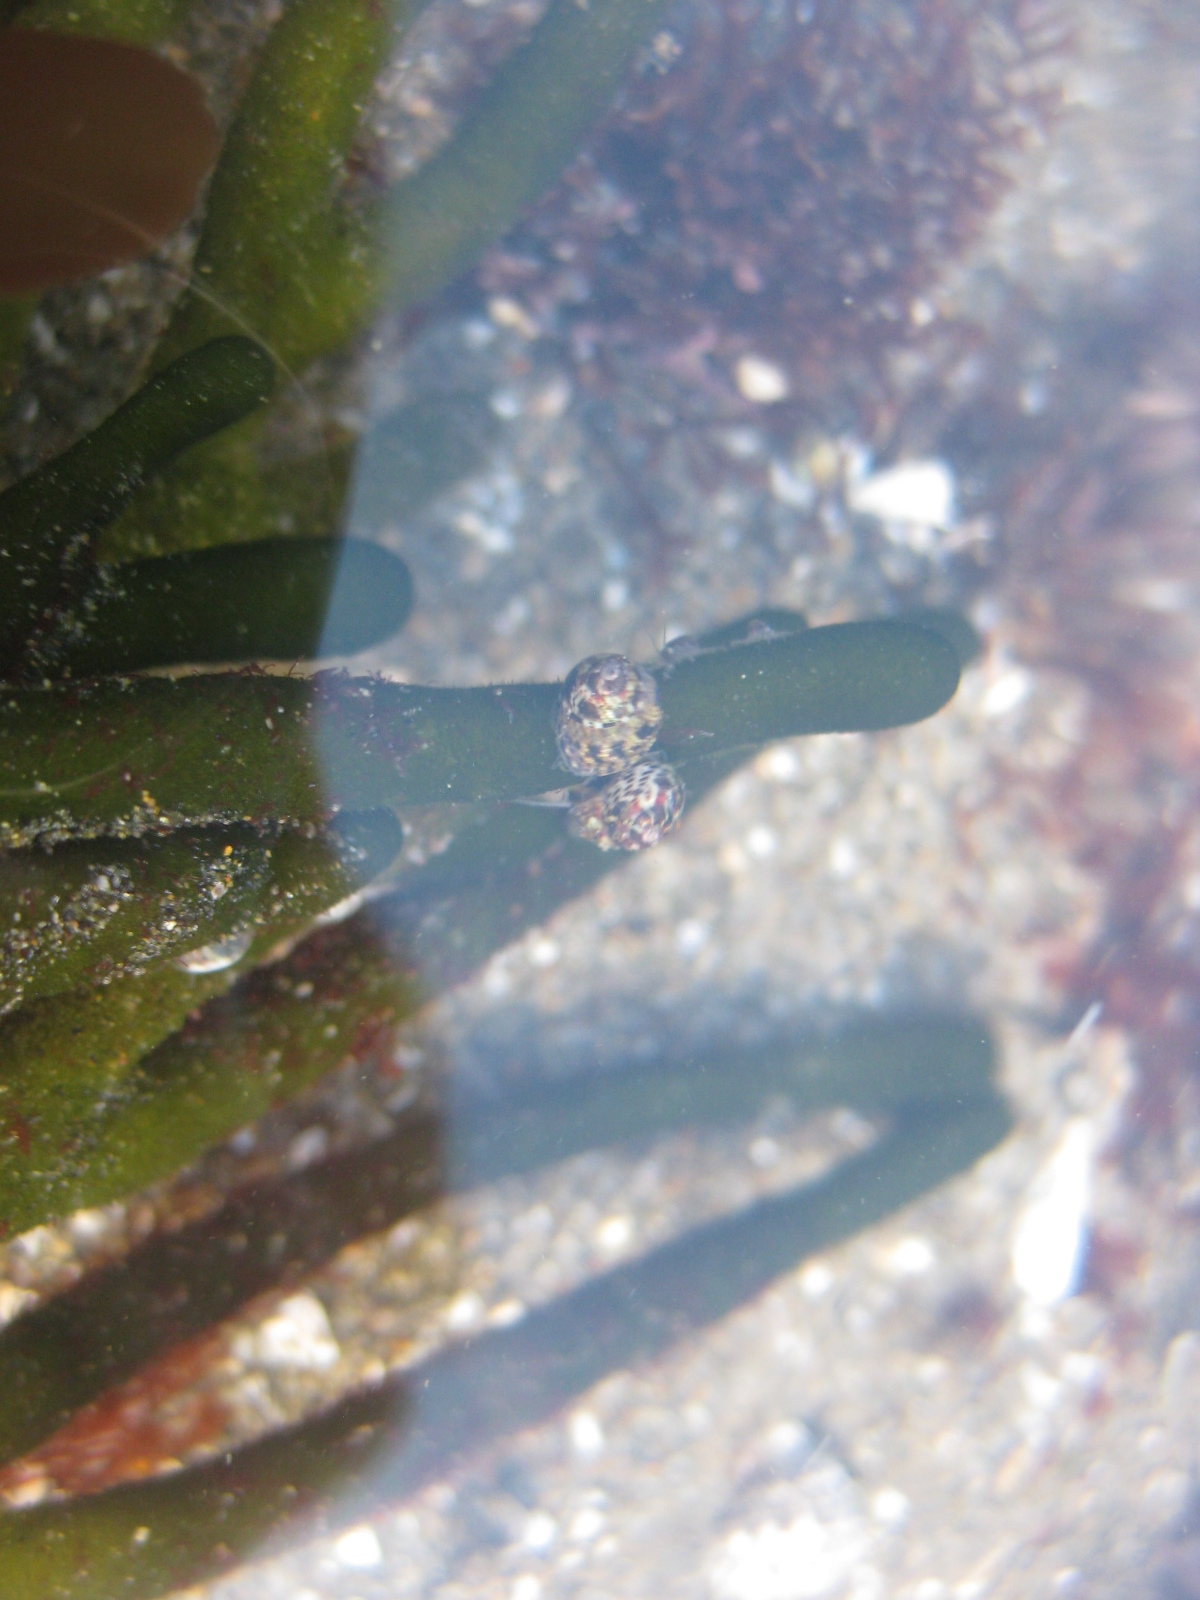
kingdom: Animalia
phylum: Mollusca
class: Gastropoda
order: Trochida
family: Trochidae
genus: Micrelenchus
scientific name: Micrelenchus tessellatus
